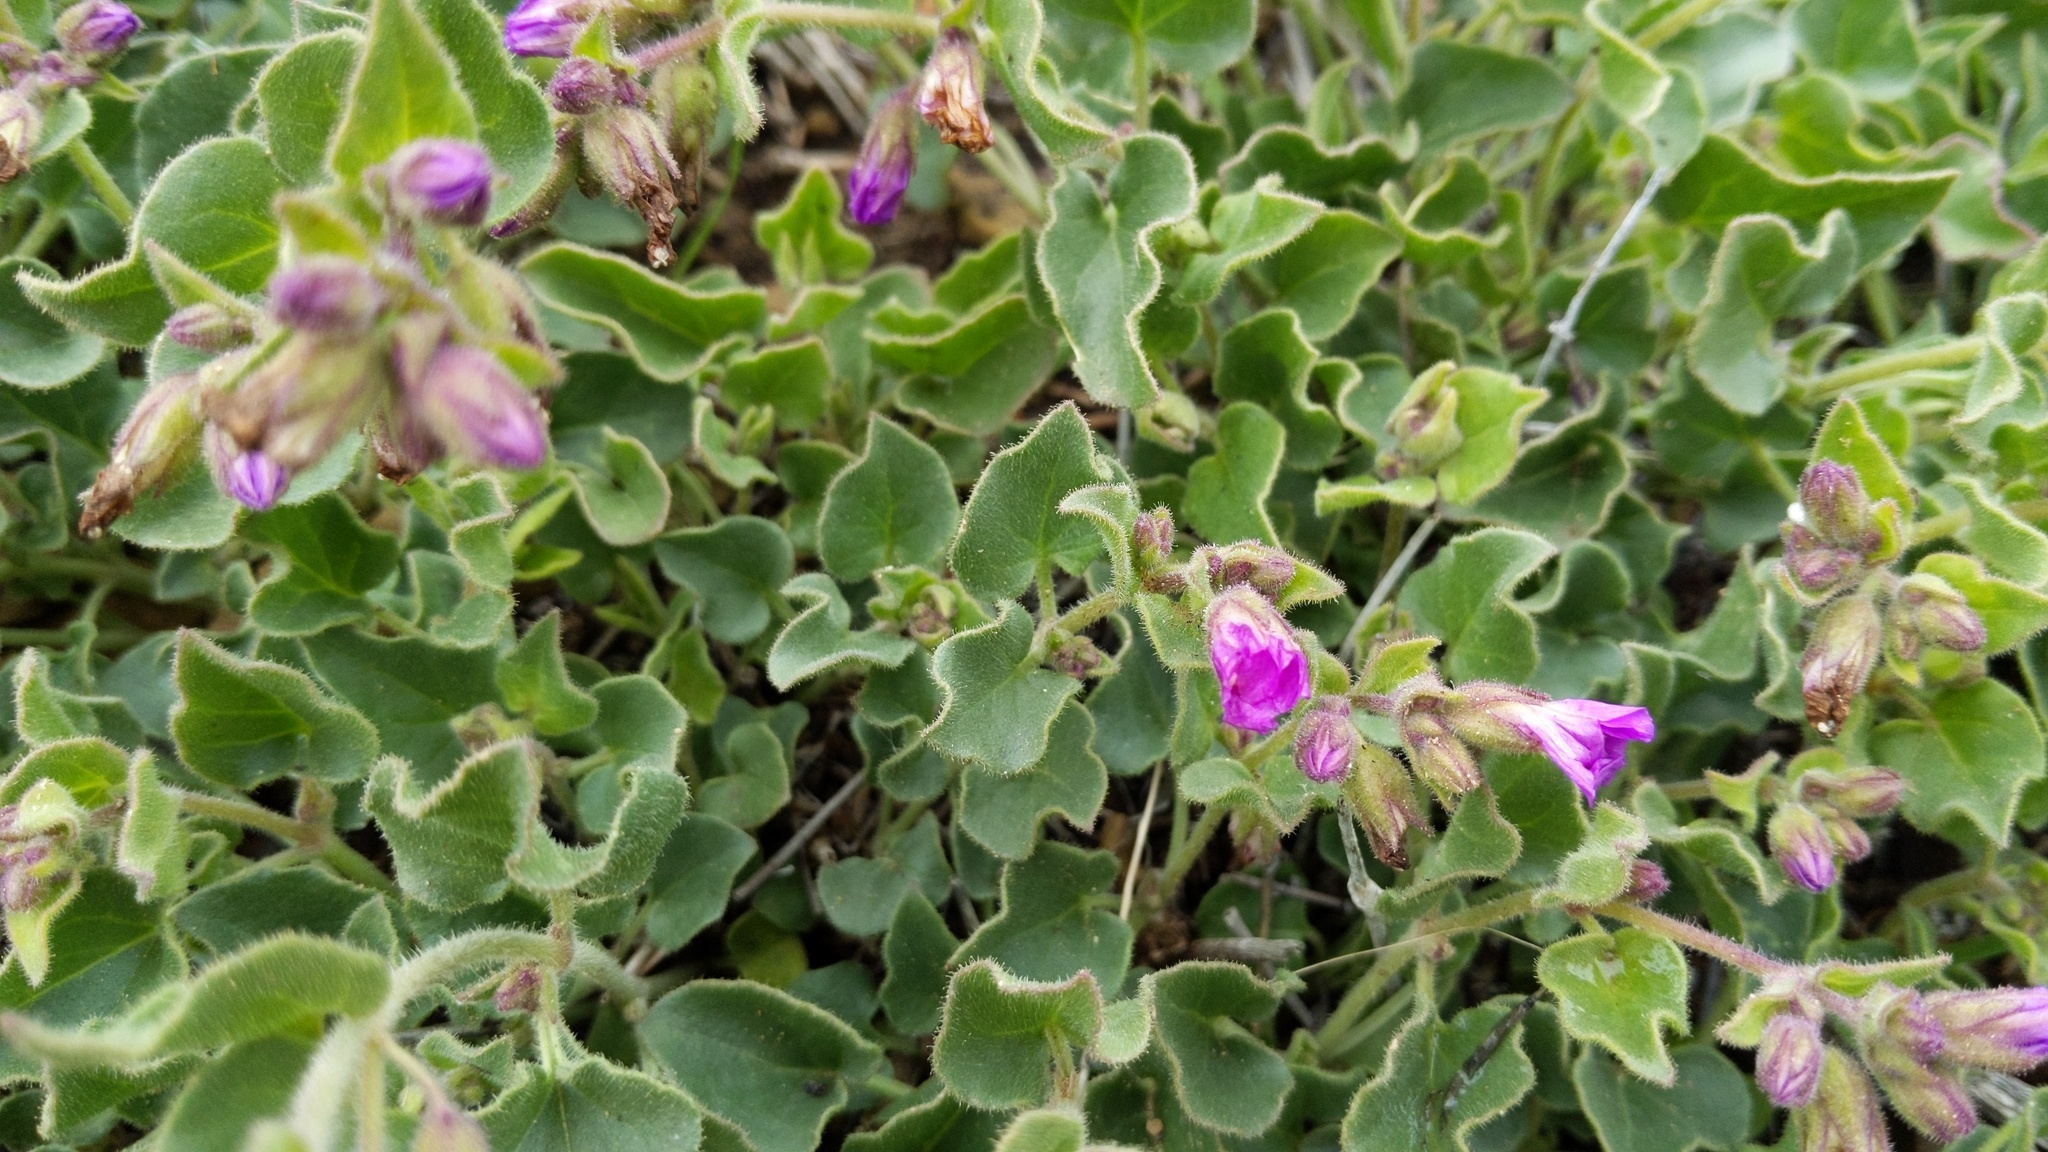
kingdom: Plantae
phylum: Tracheophyta
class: Magnoliopsida
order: Caryophyllales
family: Nyctaginaceae
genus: Mirabilis
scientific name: Mirabilis laevis
